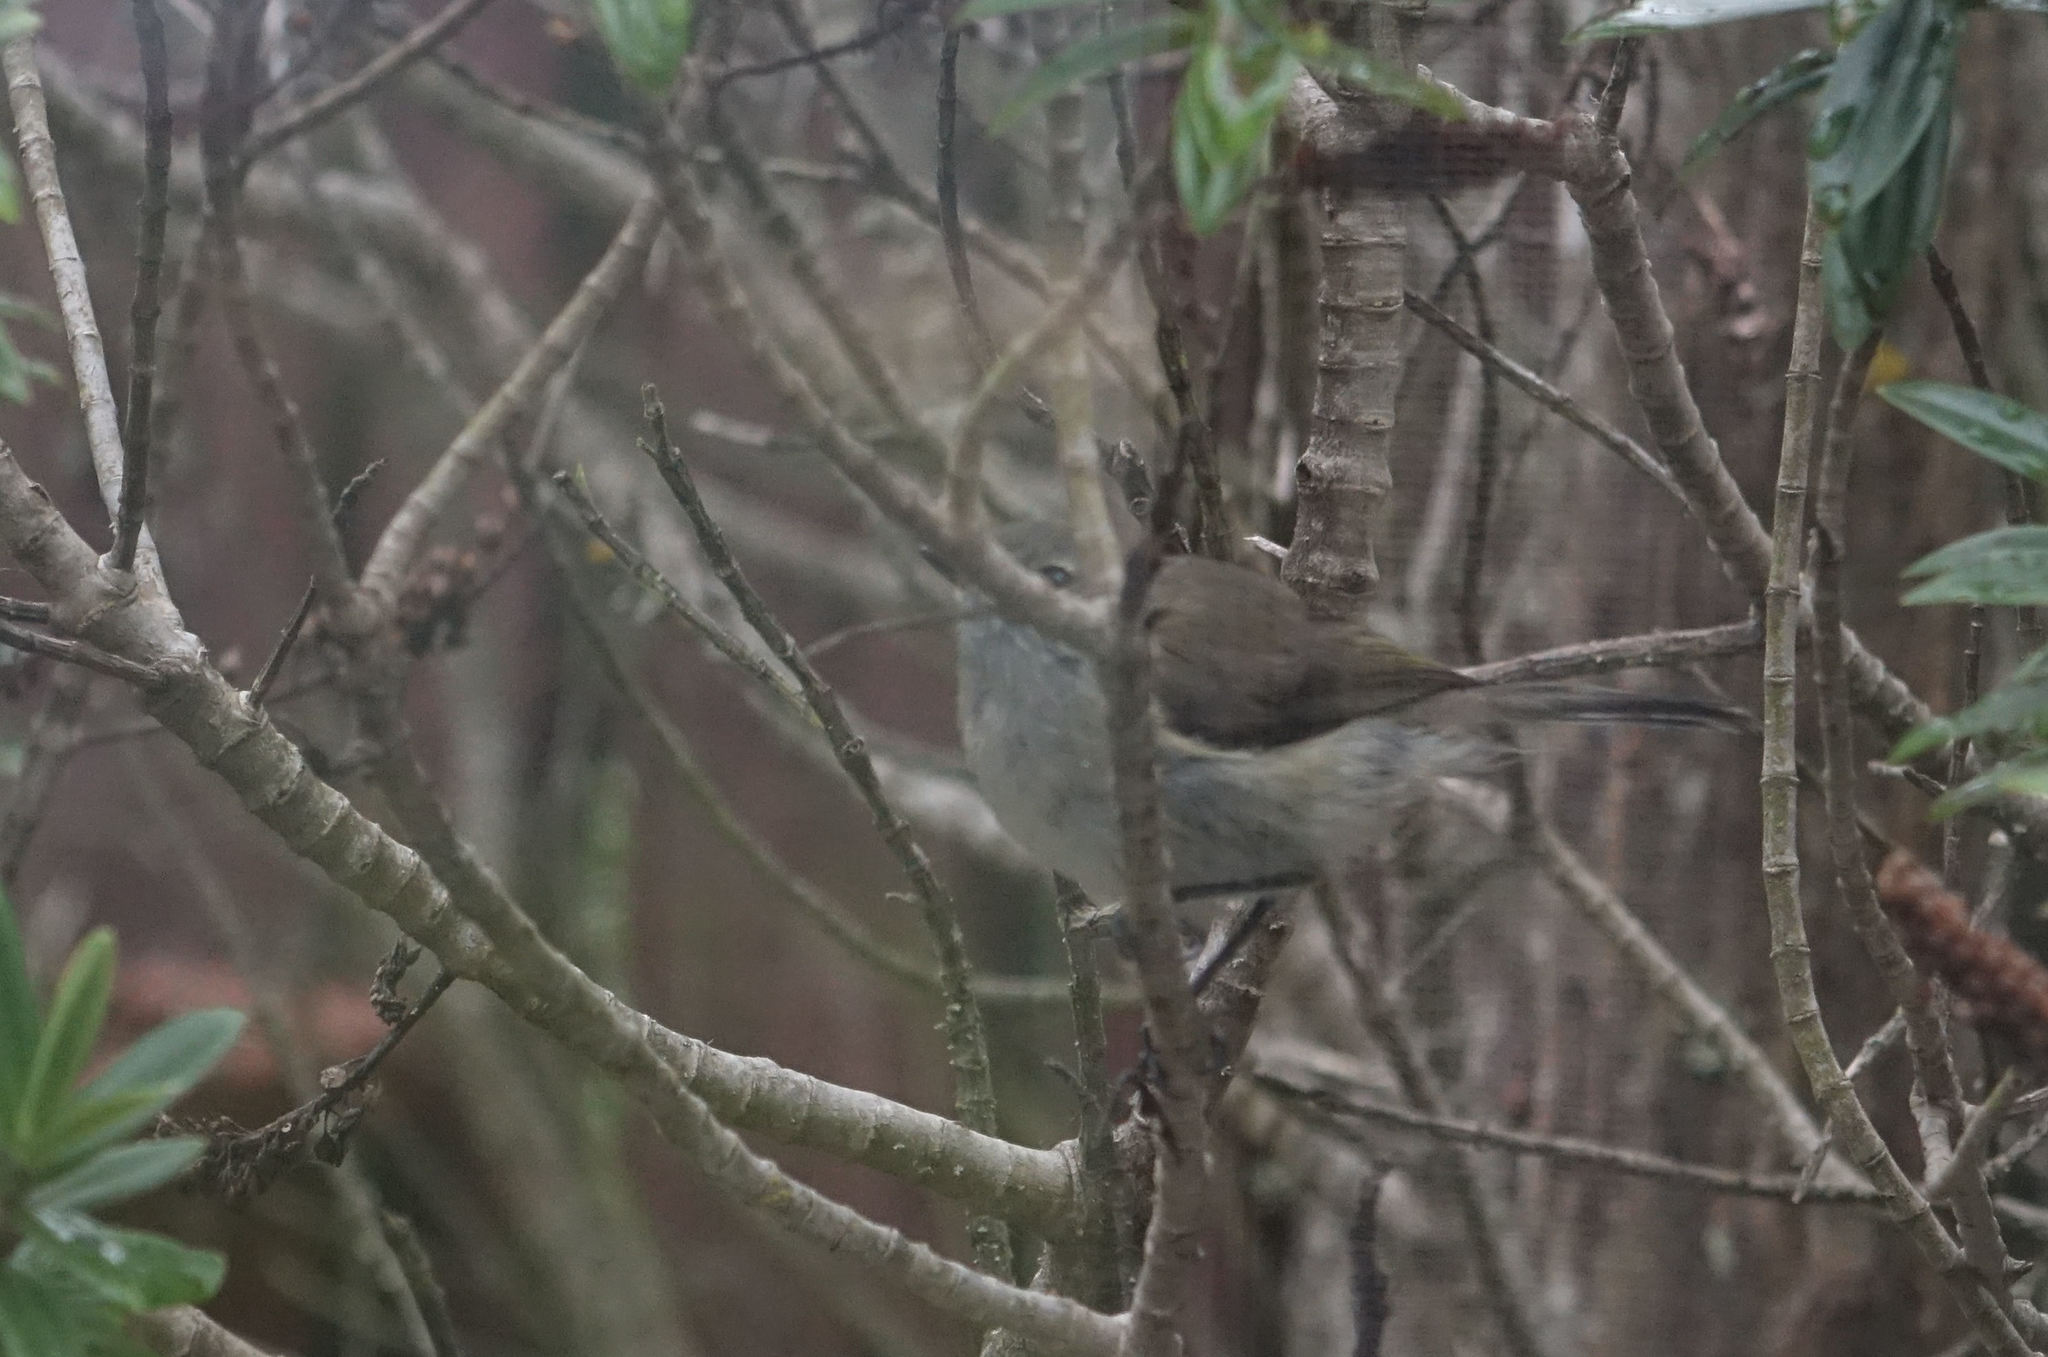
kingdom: Animalia
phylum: Chordata
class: Aves
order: Passeriformes
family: Acanthizidae
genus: Gerygone
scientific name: Gerygone igata
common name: Grey gerygone
